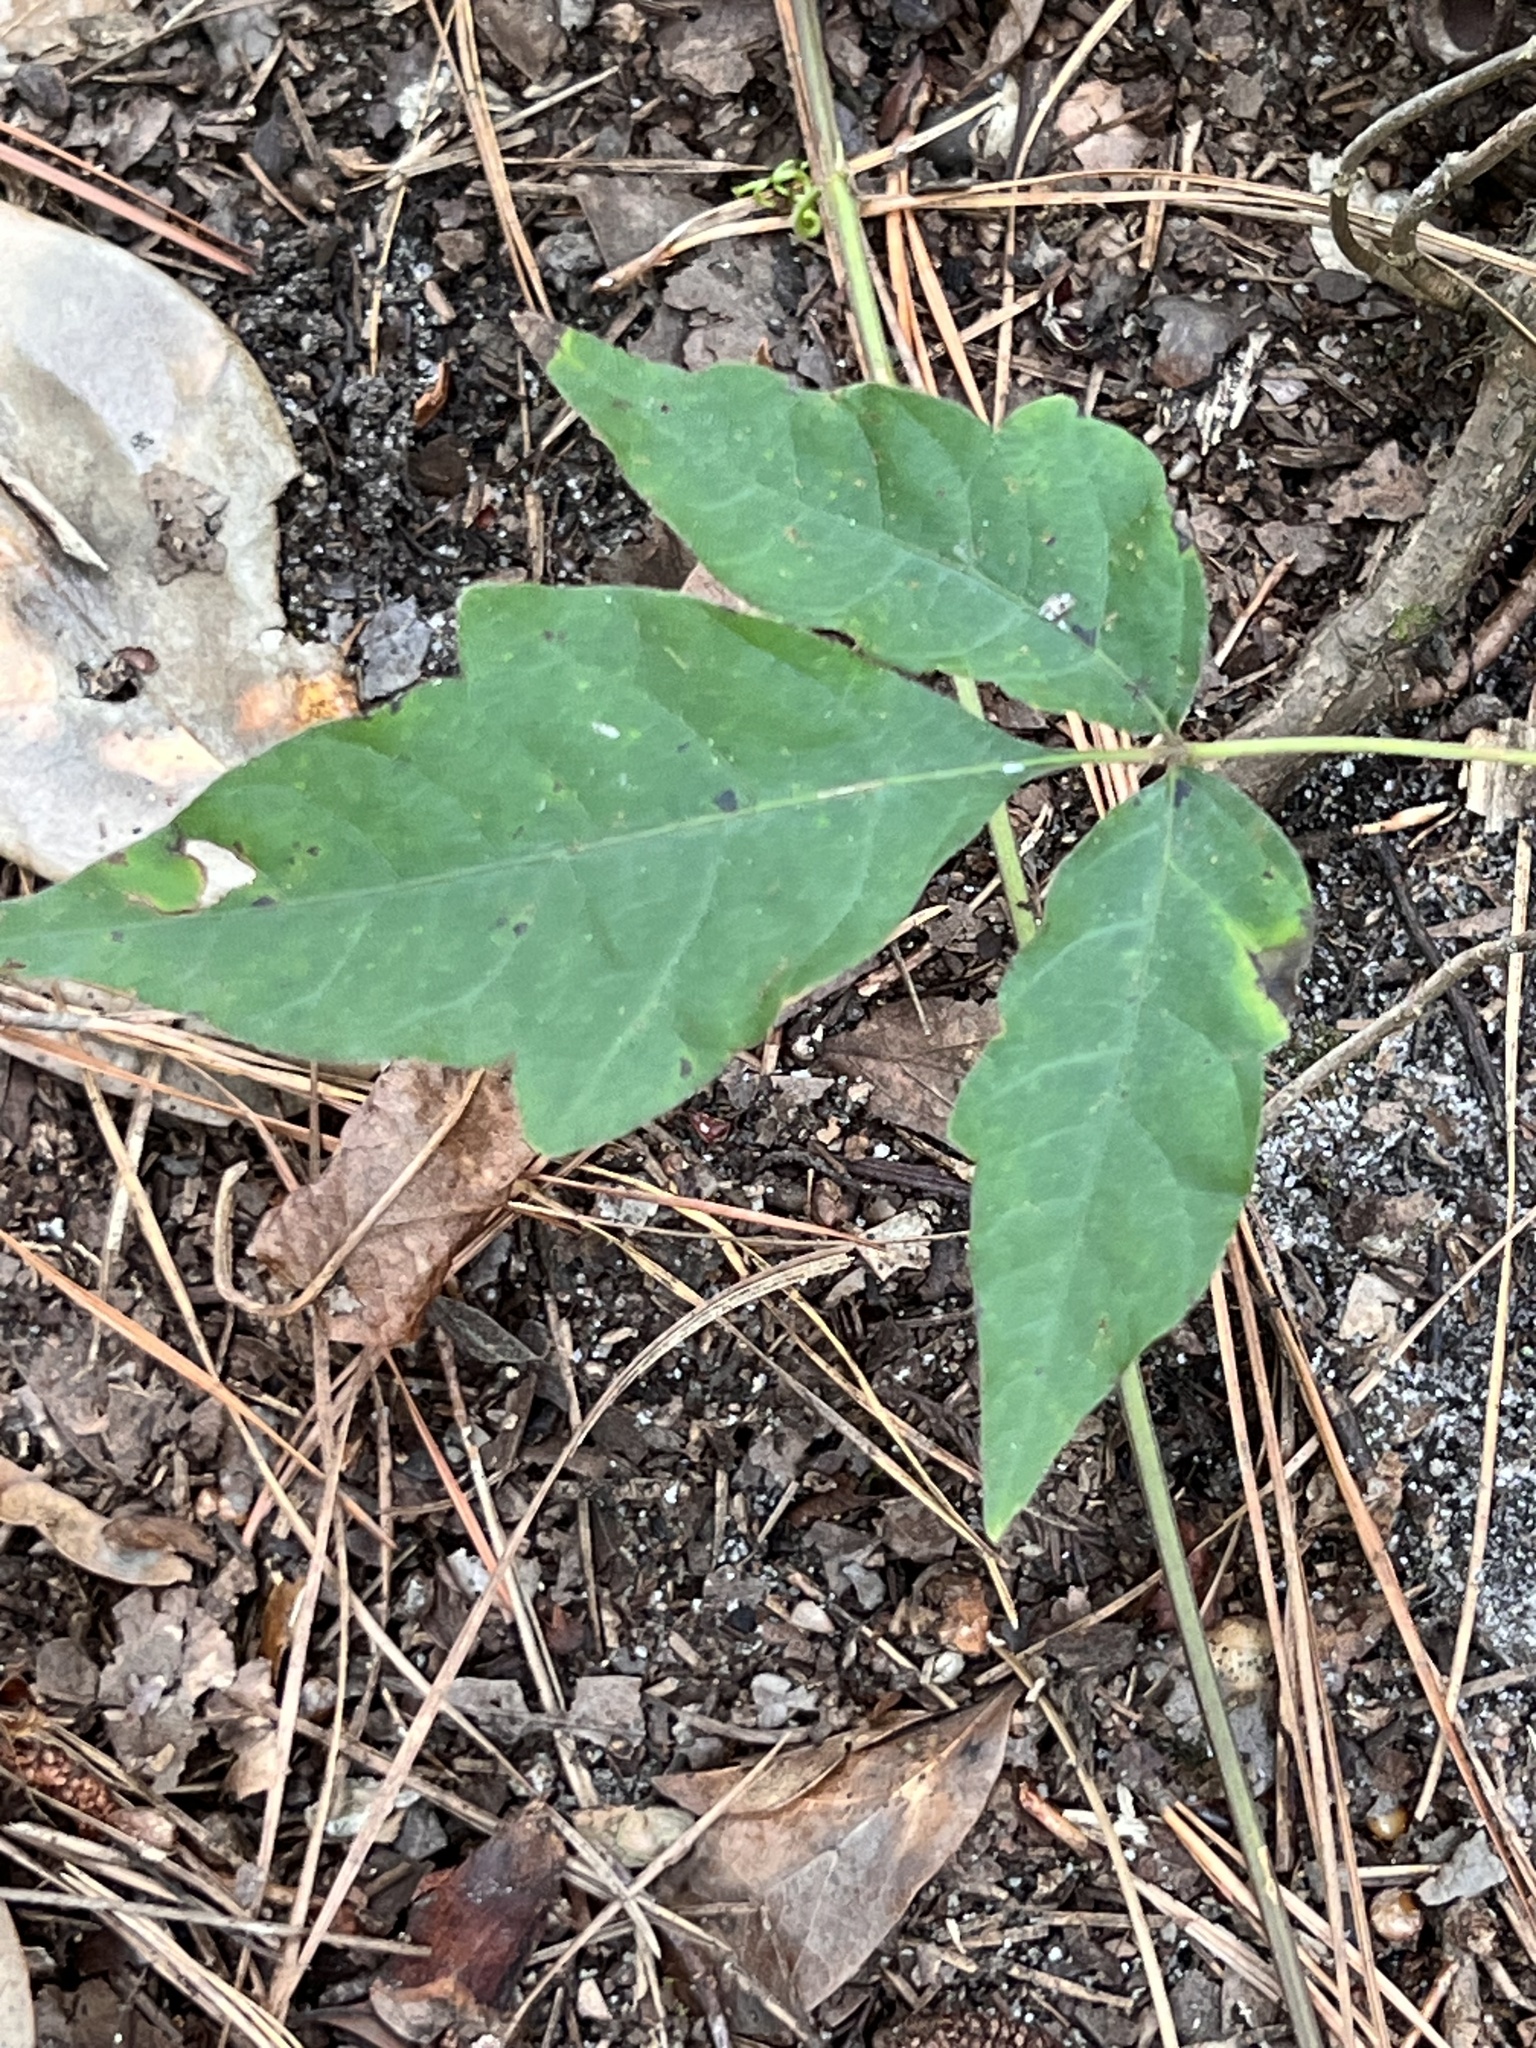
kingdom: Plantae
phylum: Tracheophyta
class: Magnoliopsida
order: Sapindales
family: Anacardiaceae
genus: Toxicodendron
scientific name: Toxicodendron radicans
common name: Poison ivy
